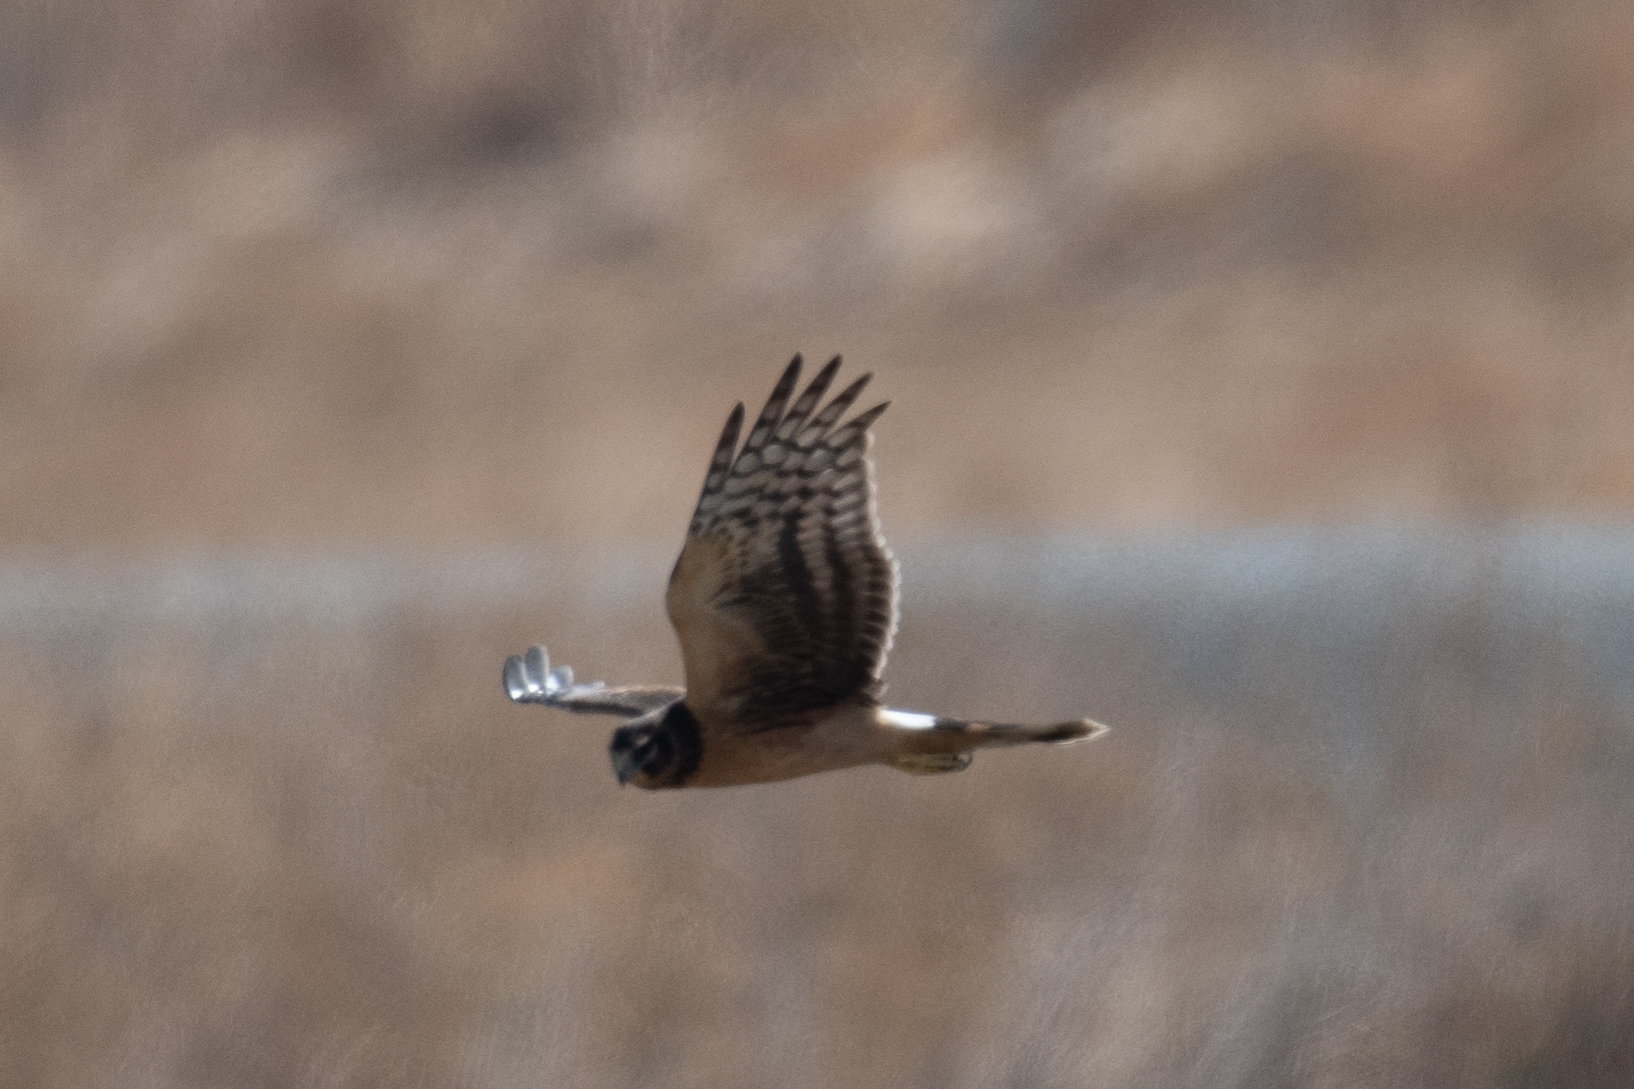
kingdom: Animalia
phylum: Chordata
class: Aves
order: Accipitriformes
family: Accipitridae
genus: Circus
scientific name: Circus cyaneus
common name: Hen harrier
